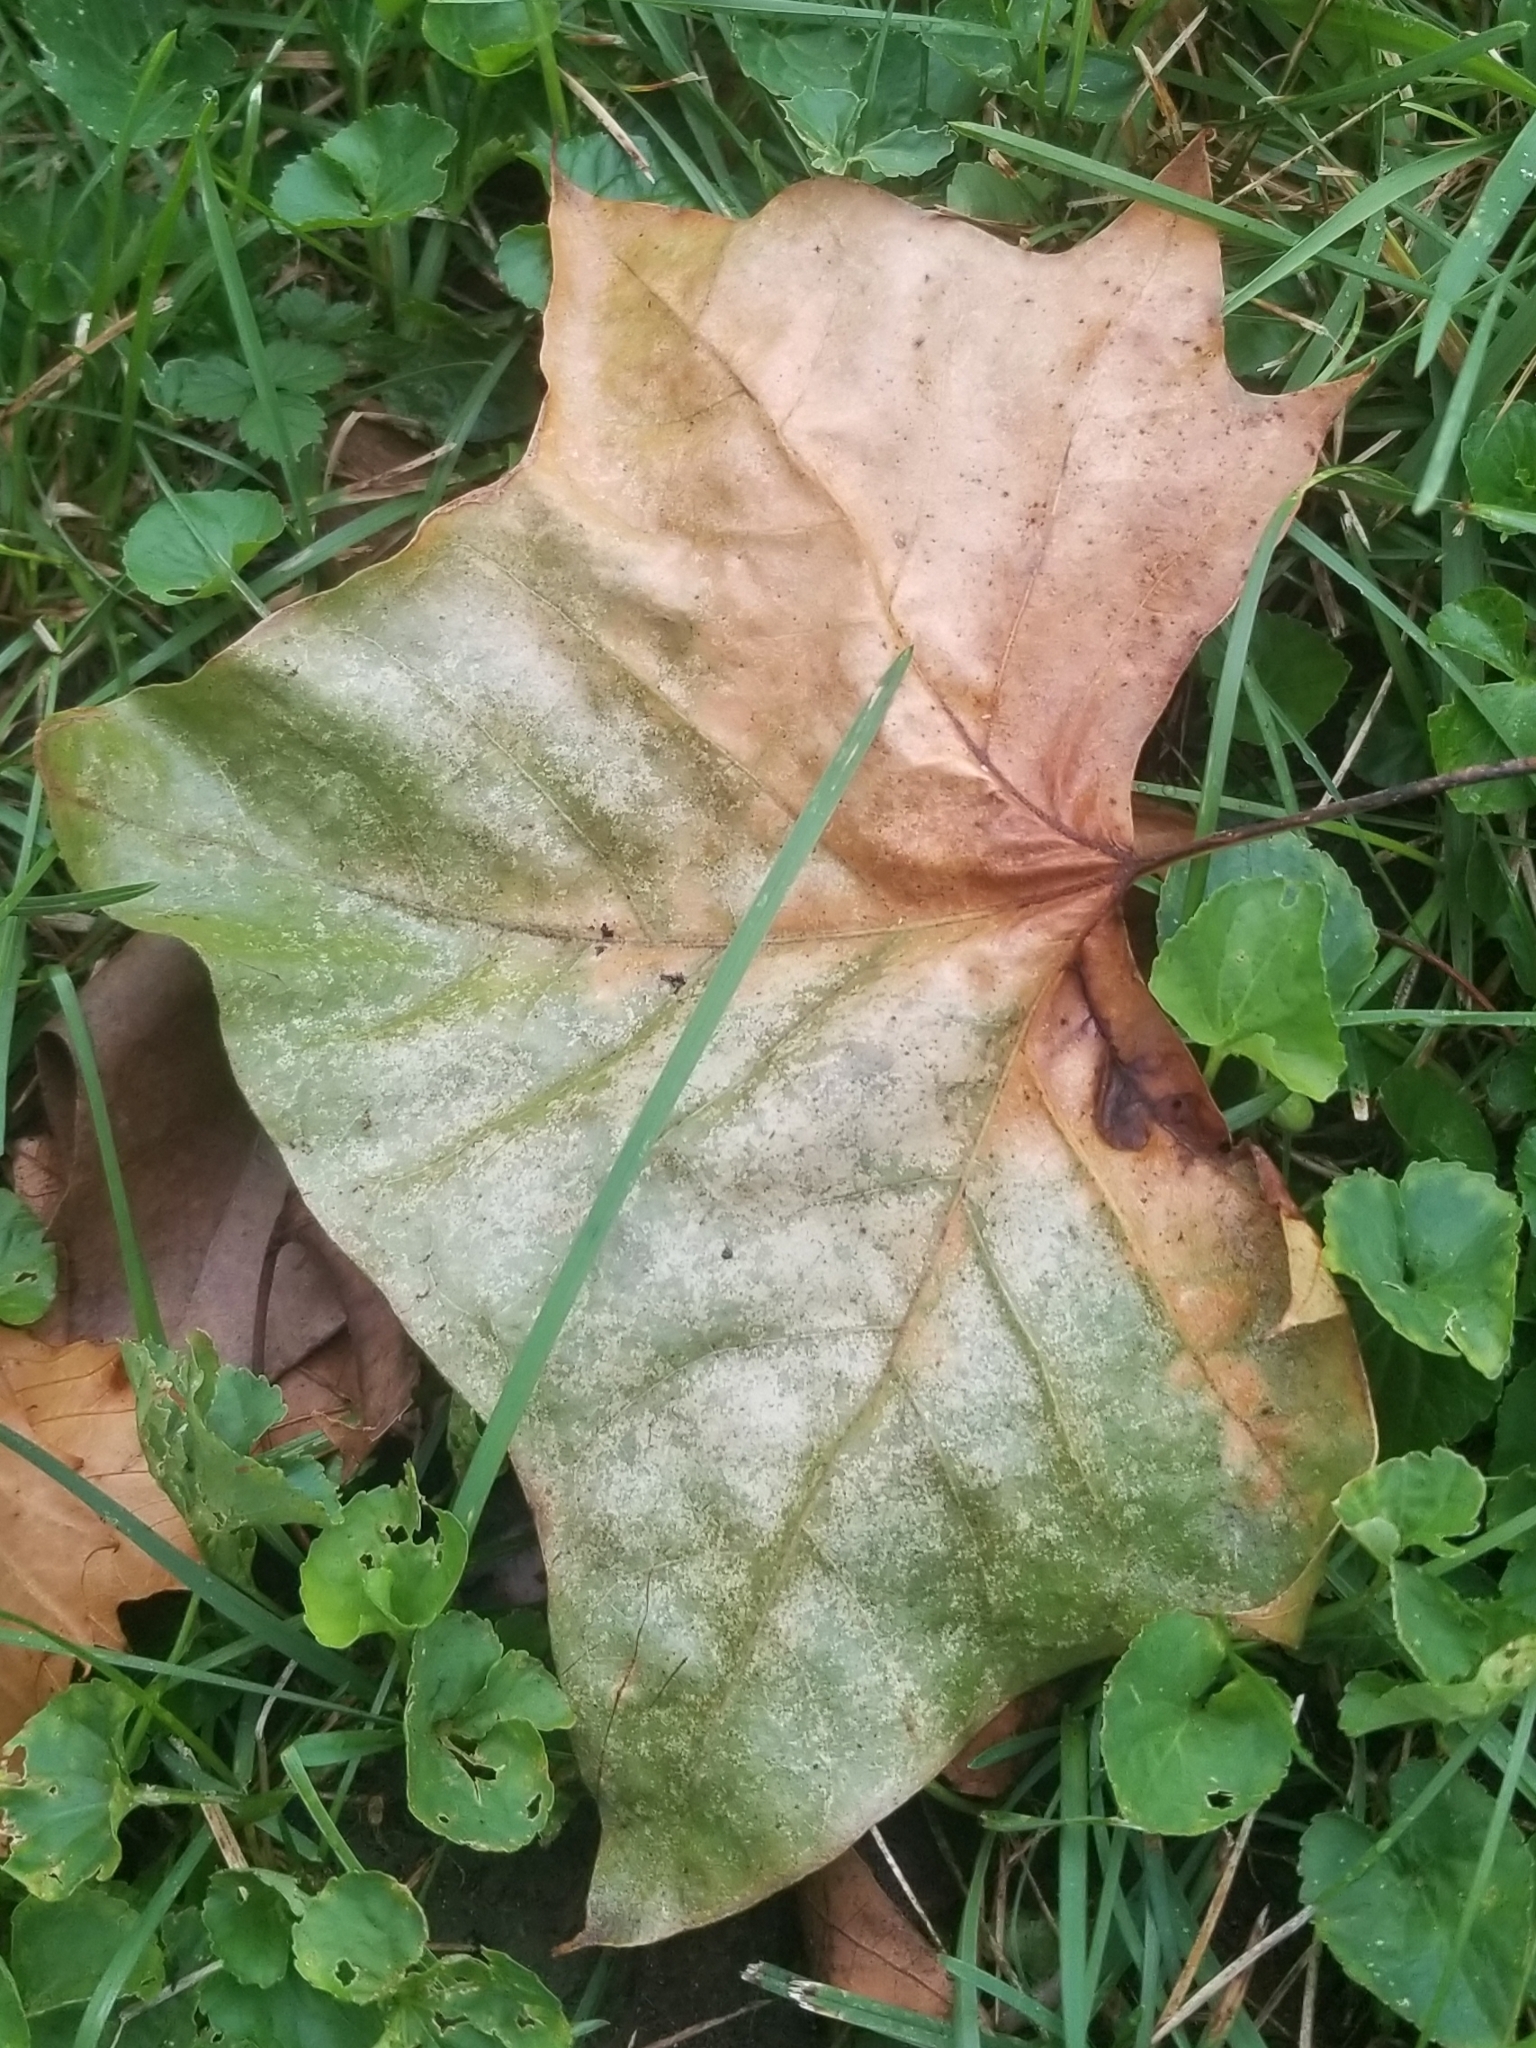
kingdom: Fungi
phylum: Ascomycota
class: Sordariomycetes
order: Diaporthales
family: Gnomoniaceae
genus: Apiognomonia
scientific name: Apiognomonia veneta
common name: Plane anthracnose
